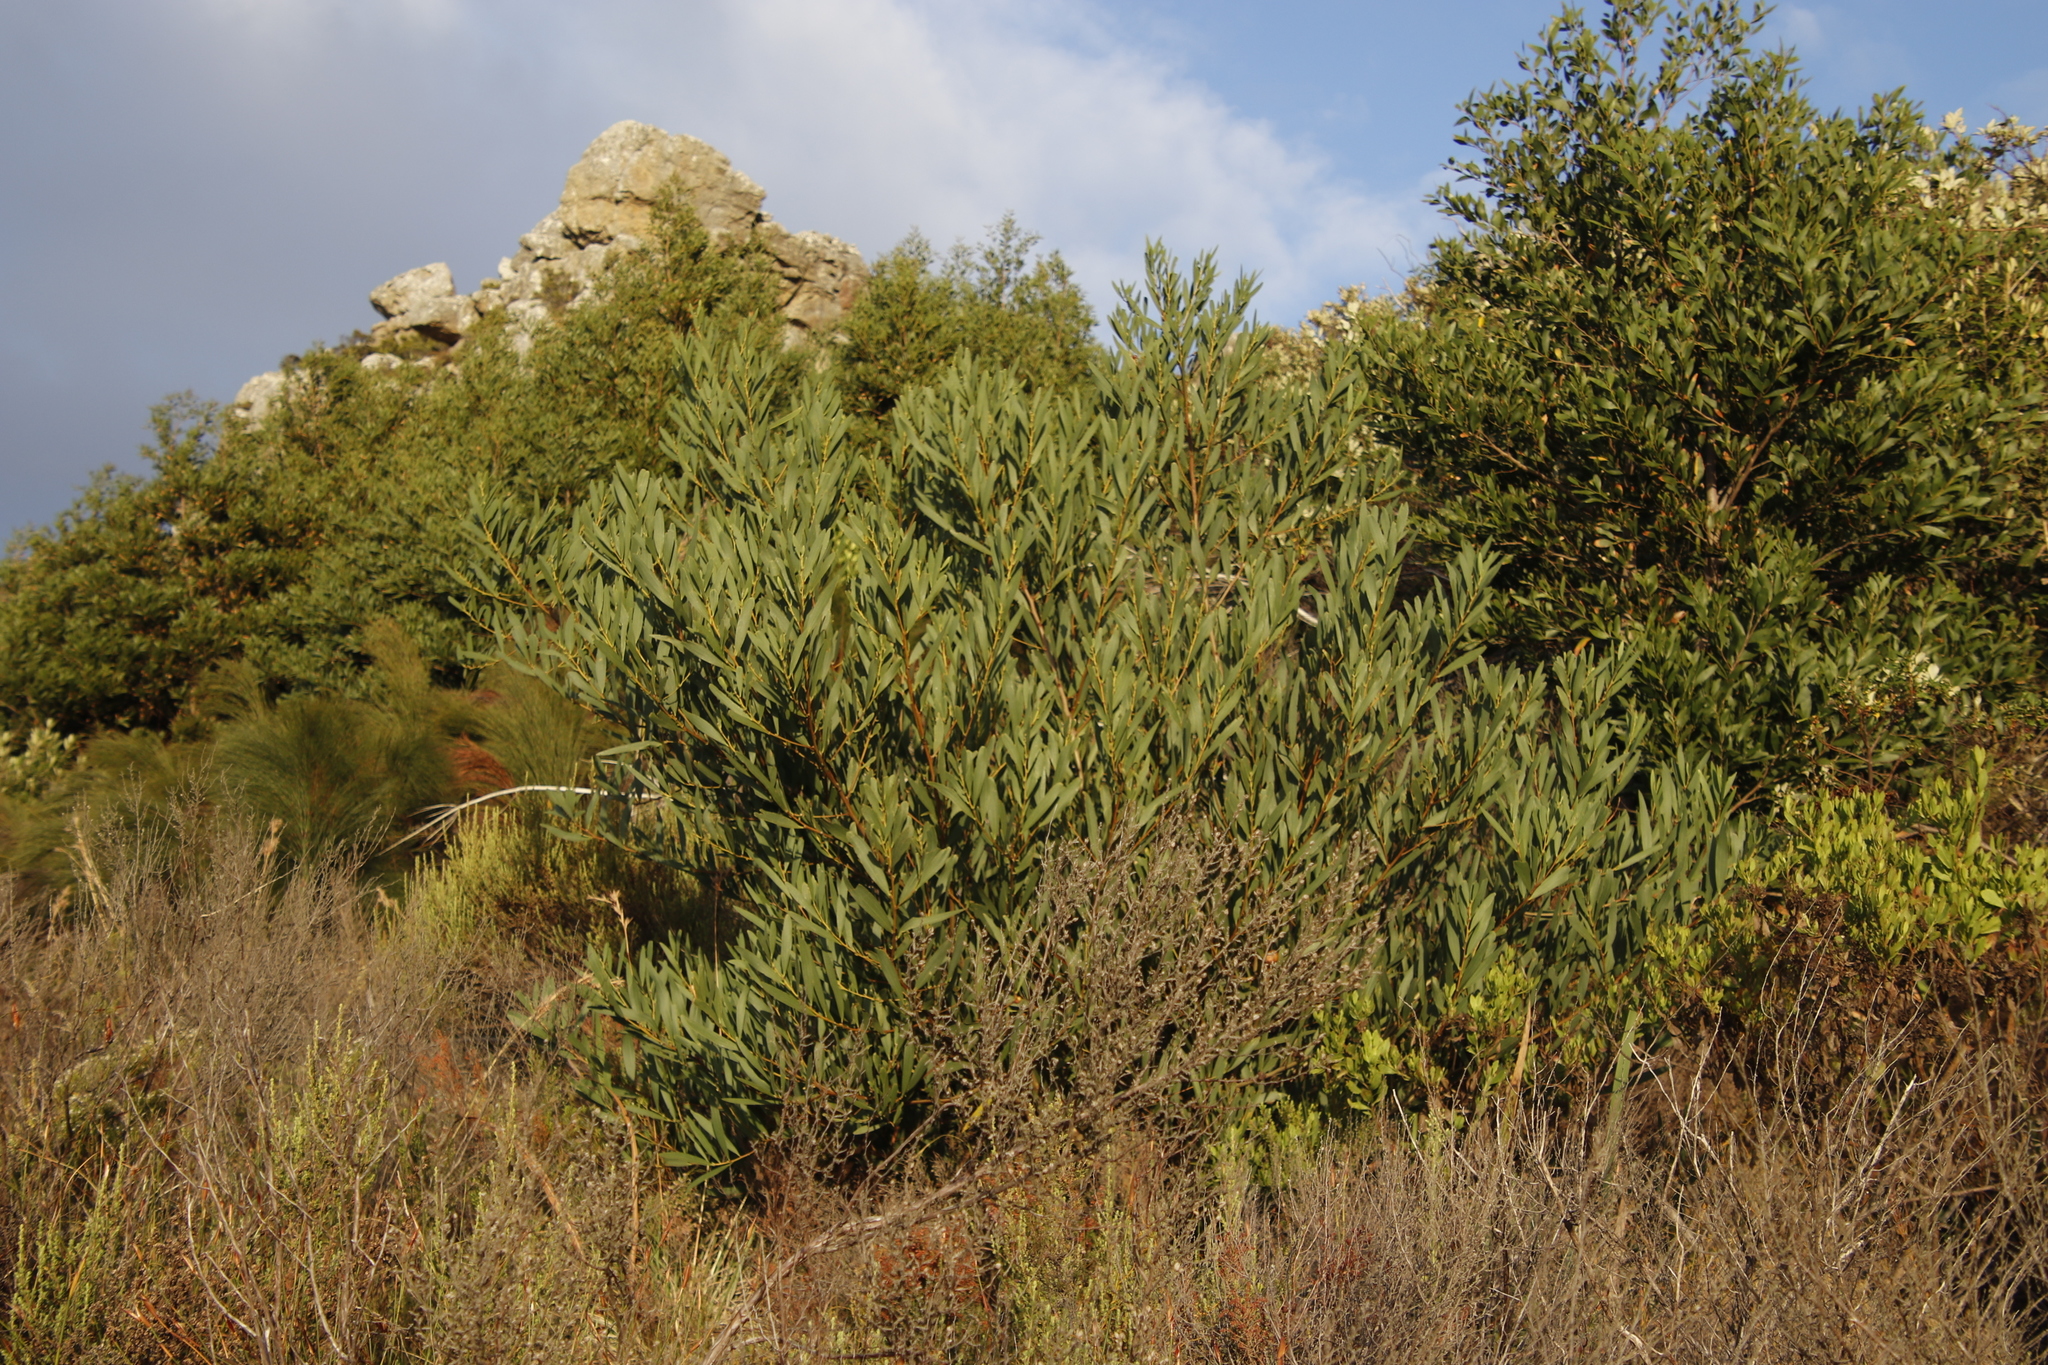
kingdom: Plantae
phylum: Tracheophyta
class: Magnoliopsida
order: Fabales
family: Fabaceae
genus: Acacia
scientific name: Acacia longifolia
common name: Sydney golden wattle
